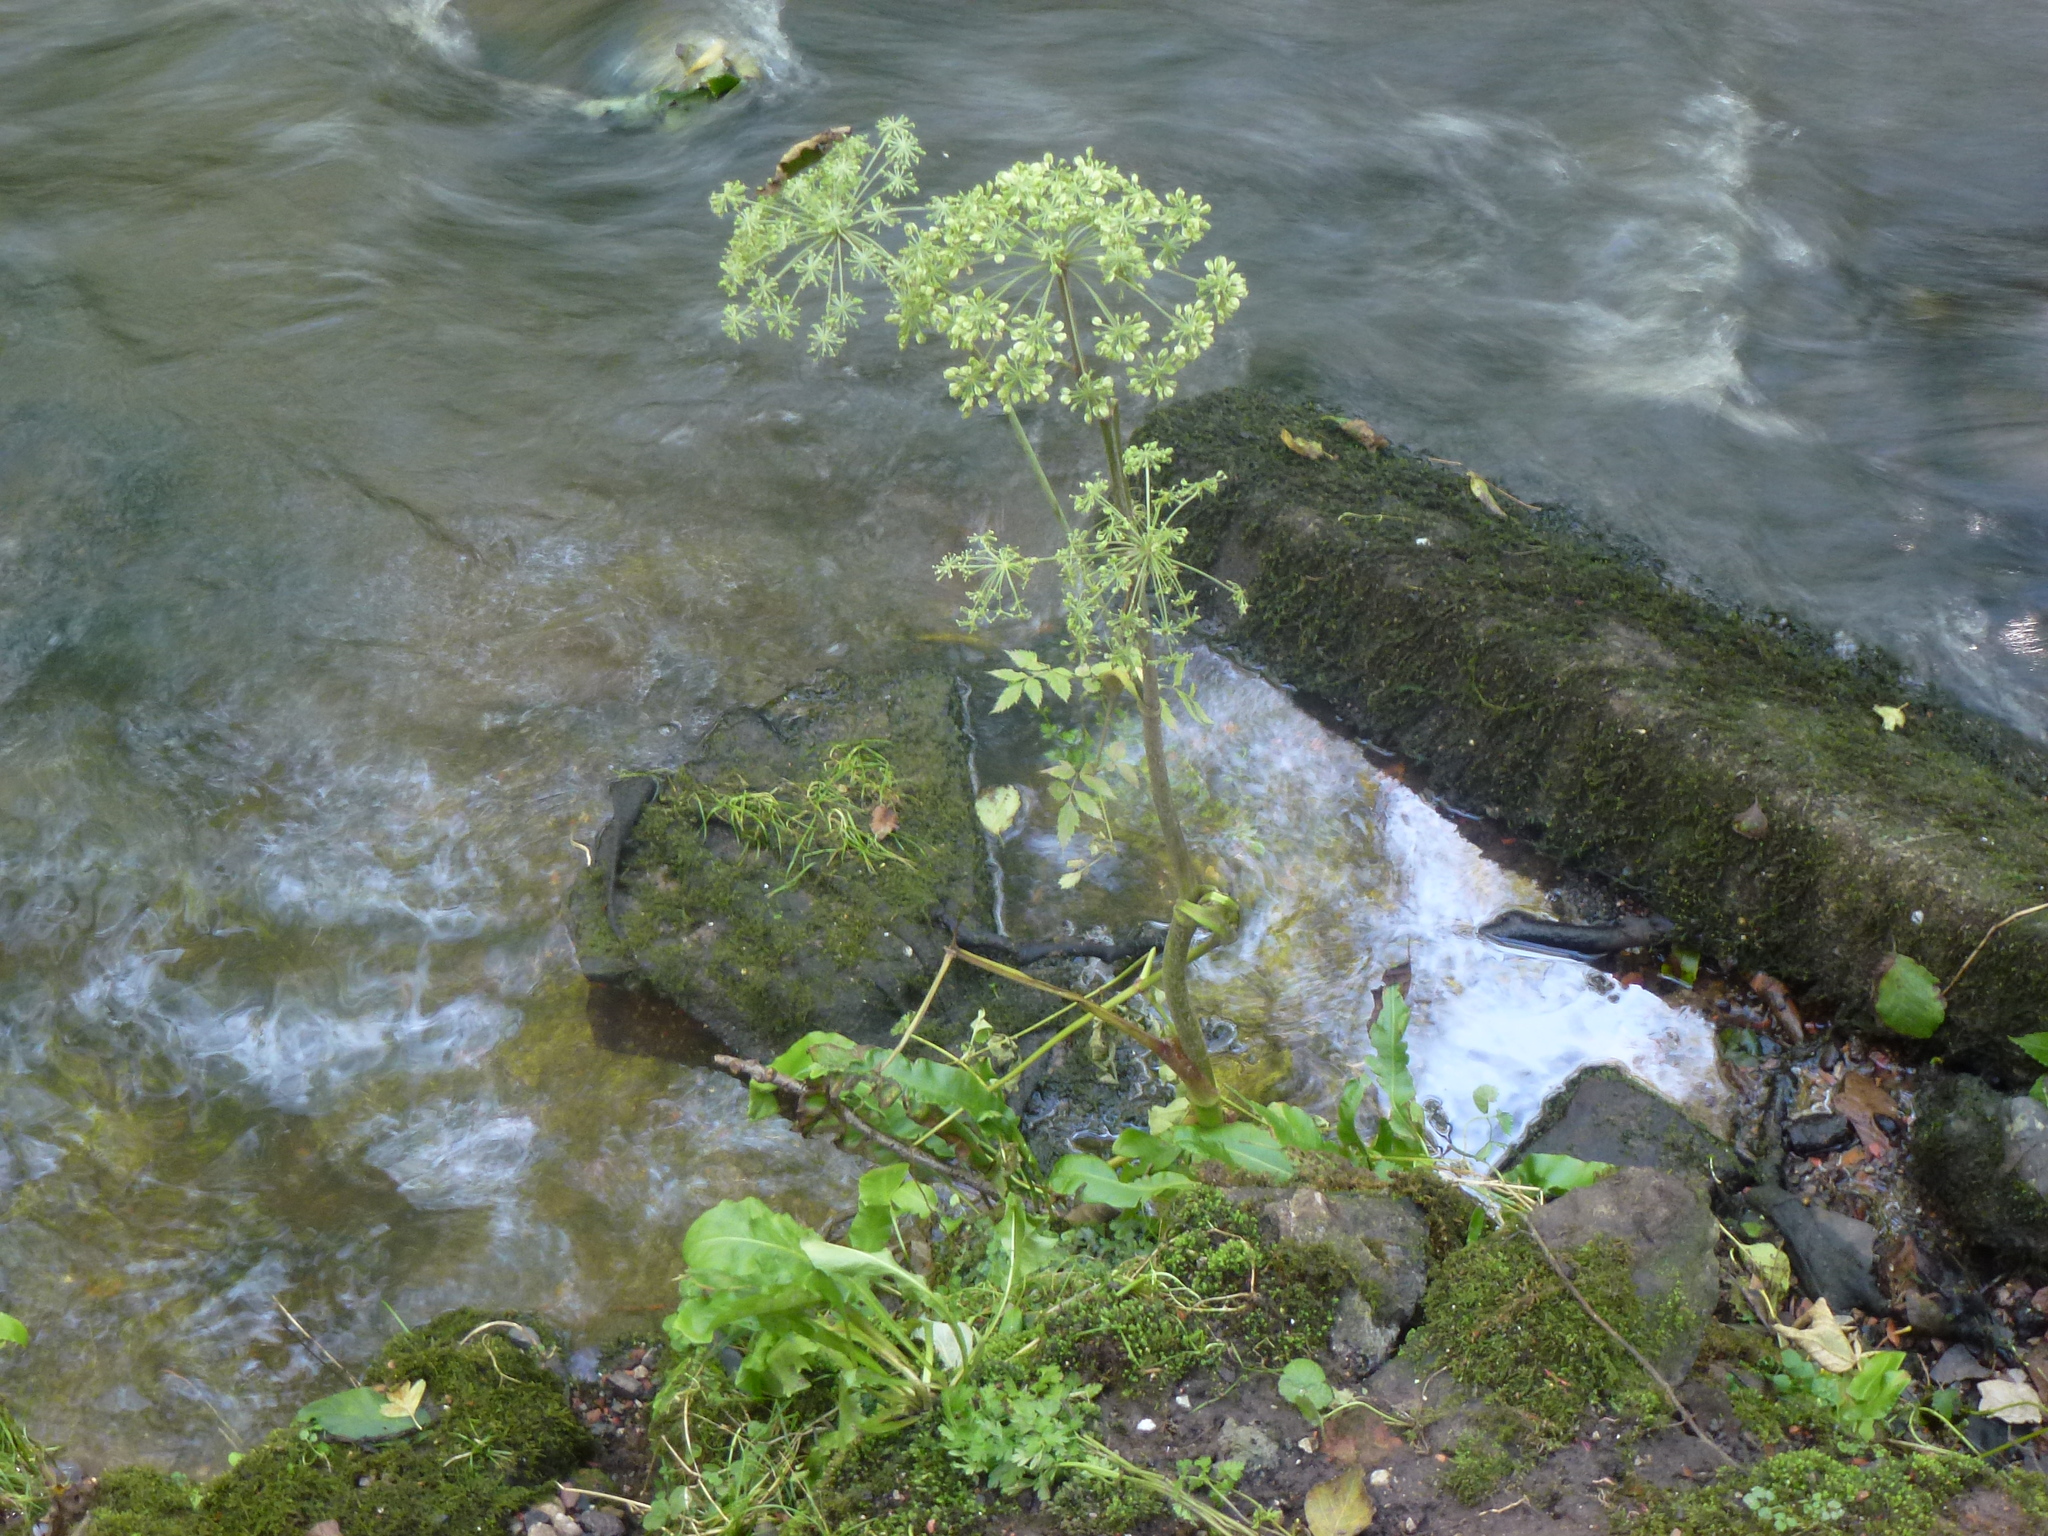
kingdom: Plantae
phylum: Tracheophyta
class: Magnoliopsida
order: Apiales
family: Apiaceae
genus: Angelica
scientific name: Angelica sylvestris
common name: Wild angelica
